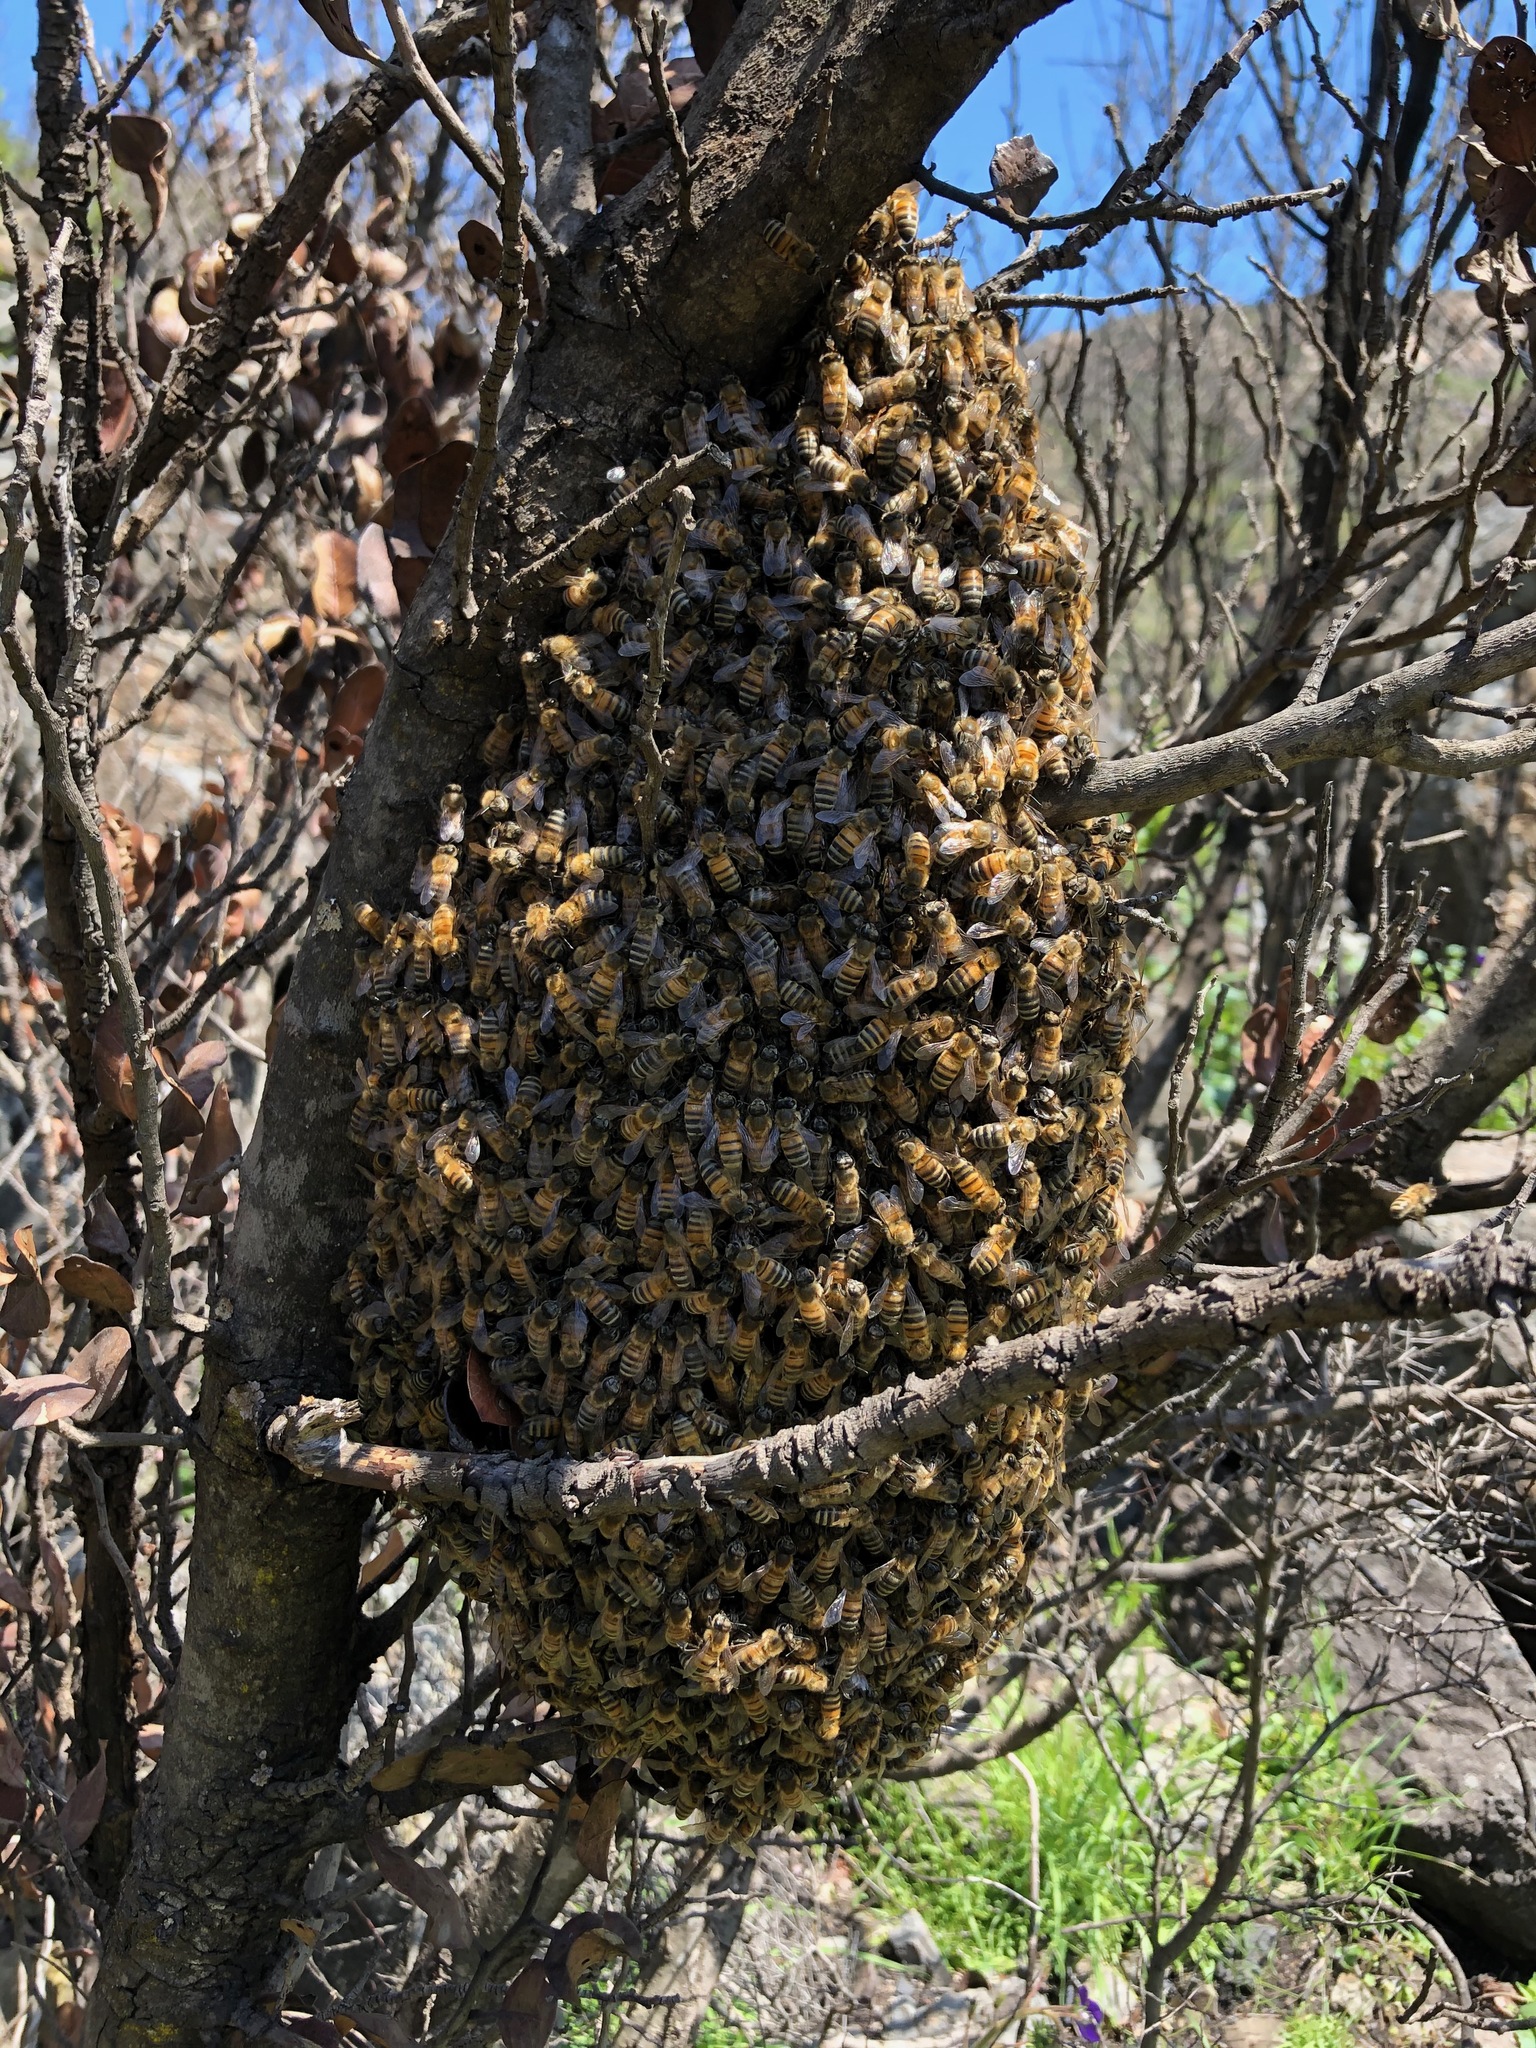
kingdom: Animalia
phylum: Arthropoda
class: Insecta
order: Hymenoptera
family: Apidae
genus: Apis
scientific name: Apis mellifera
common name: Honey bee
